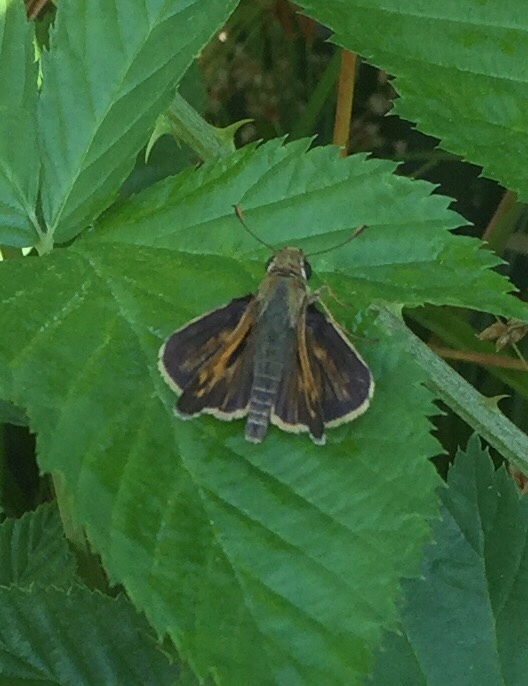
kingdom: Animalia
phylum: Arthropoda
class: Insecta
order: Lepidoptera
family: Hesperiidae
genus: Atalopedes
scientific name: Atalopedes
